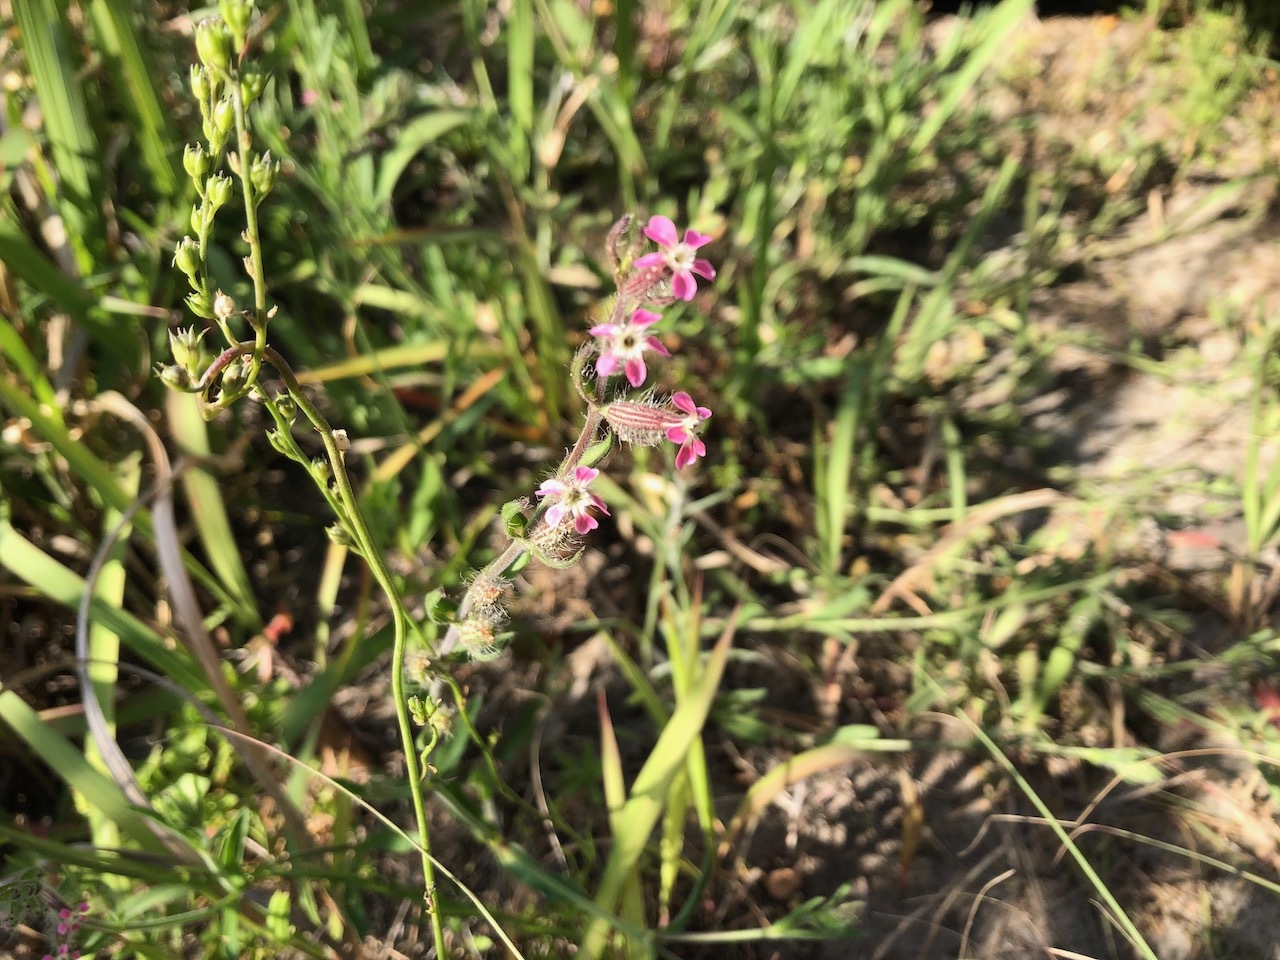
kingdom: Plantae
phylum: Tracheophyta
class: Magnoliopsida
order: Caryophyllales
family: Caryophyllaceae
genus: Silene
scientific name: Silene gallica
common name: Small-flowered catchfly
